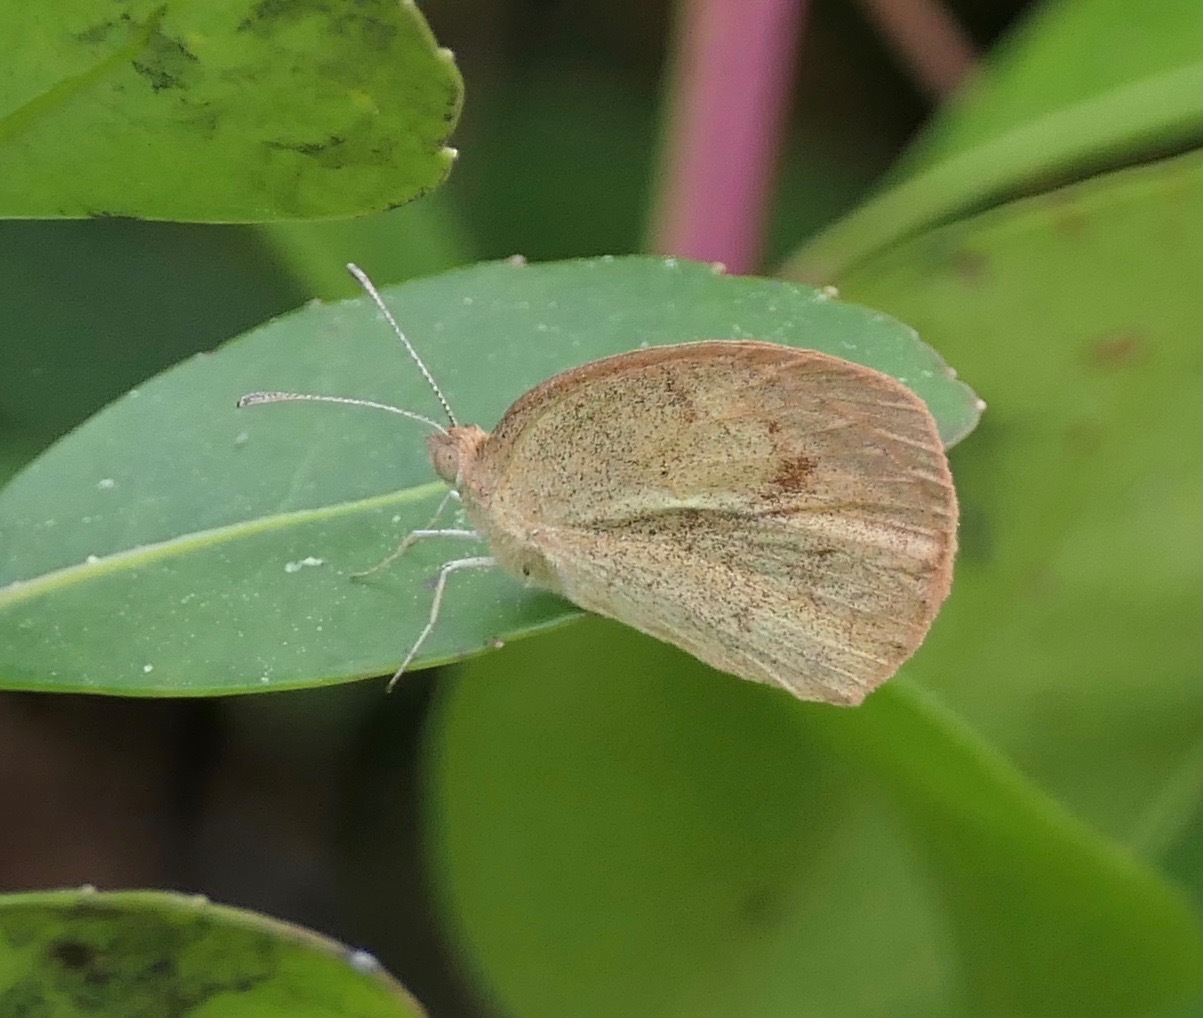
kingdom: Animalia
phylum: Arthropoda
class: Insecta
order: Lepidoptera
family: Pieridae
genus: Eurema
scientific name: Eurema daira
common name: Barred sulphur
